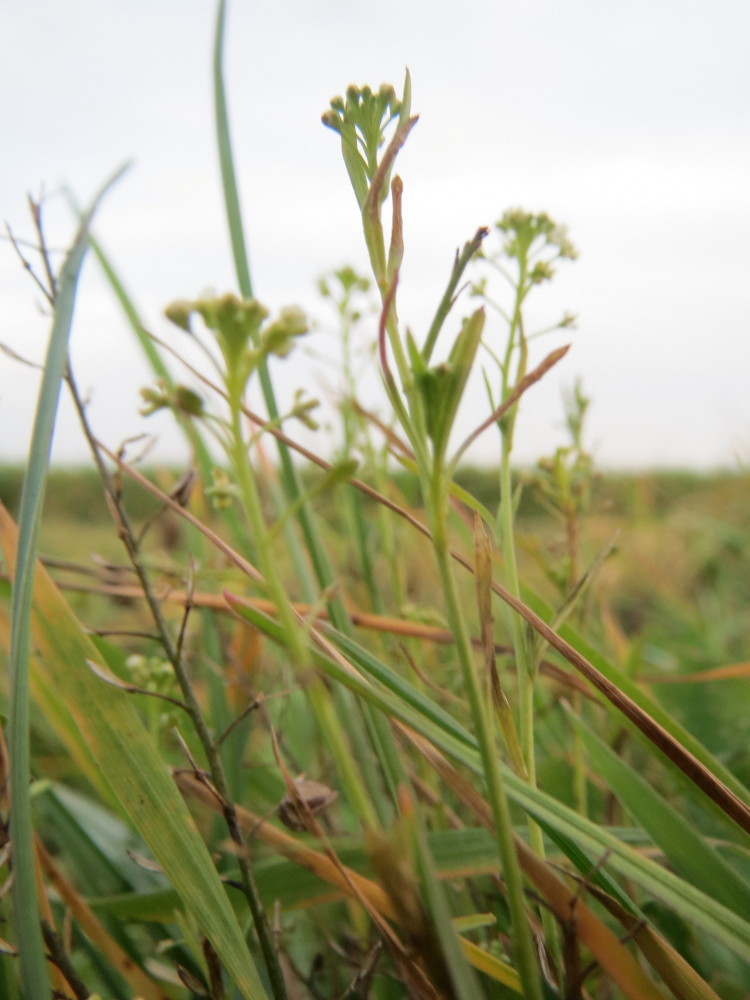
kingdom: Plantae
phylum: Tracheophyta
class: Magnoliopsida
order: Brassicales
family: Brassicaceae
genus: Lepidium
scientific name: Lepidium virginicum
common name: Least pepperwort
